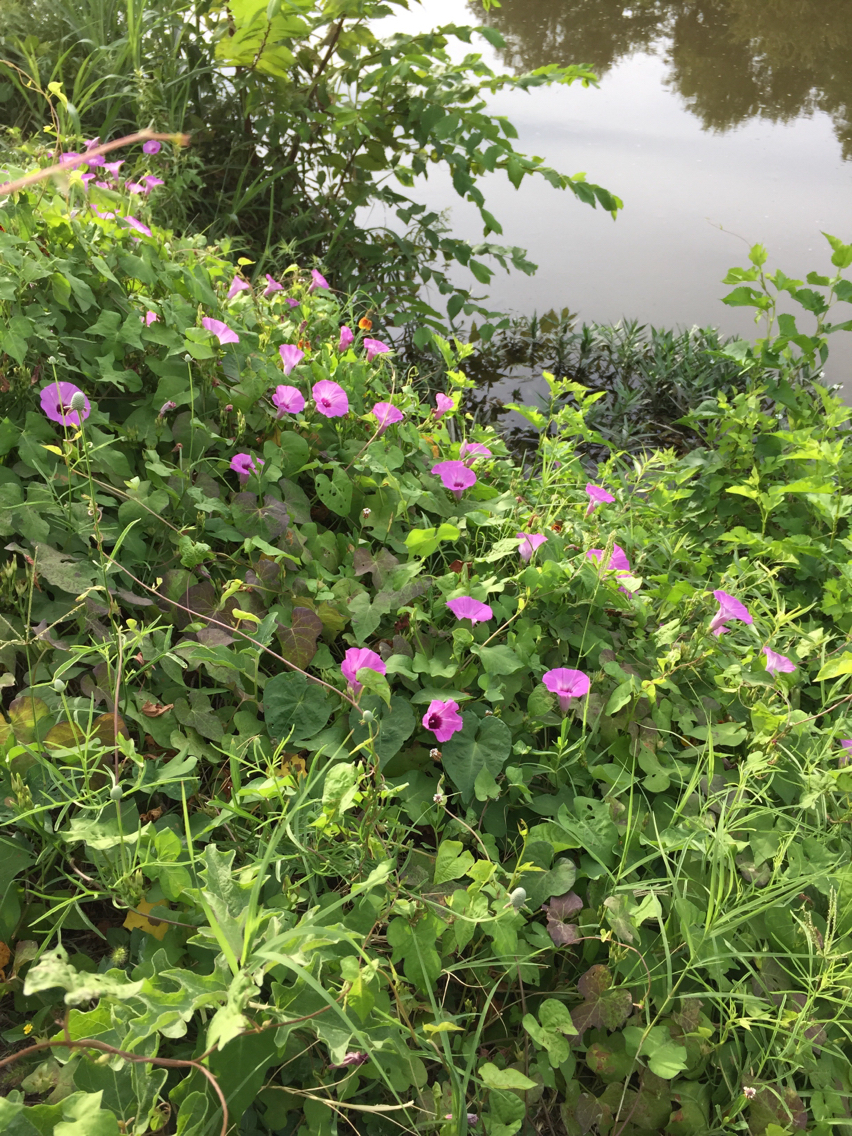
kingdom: Plantae
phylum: Tracheophyta
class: Magnoliopsida
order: Solanales
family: Convolvulaceae
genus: Ipomoea
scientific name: Ipomoea cordatotriloba
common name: Cotton morning glory
